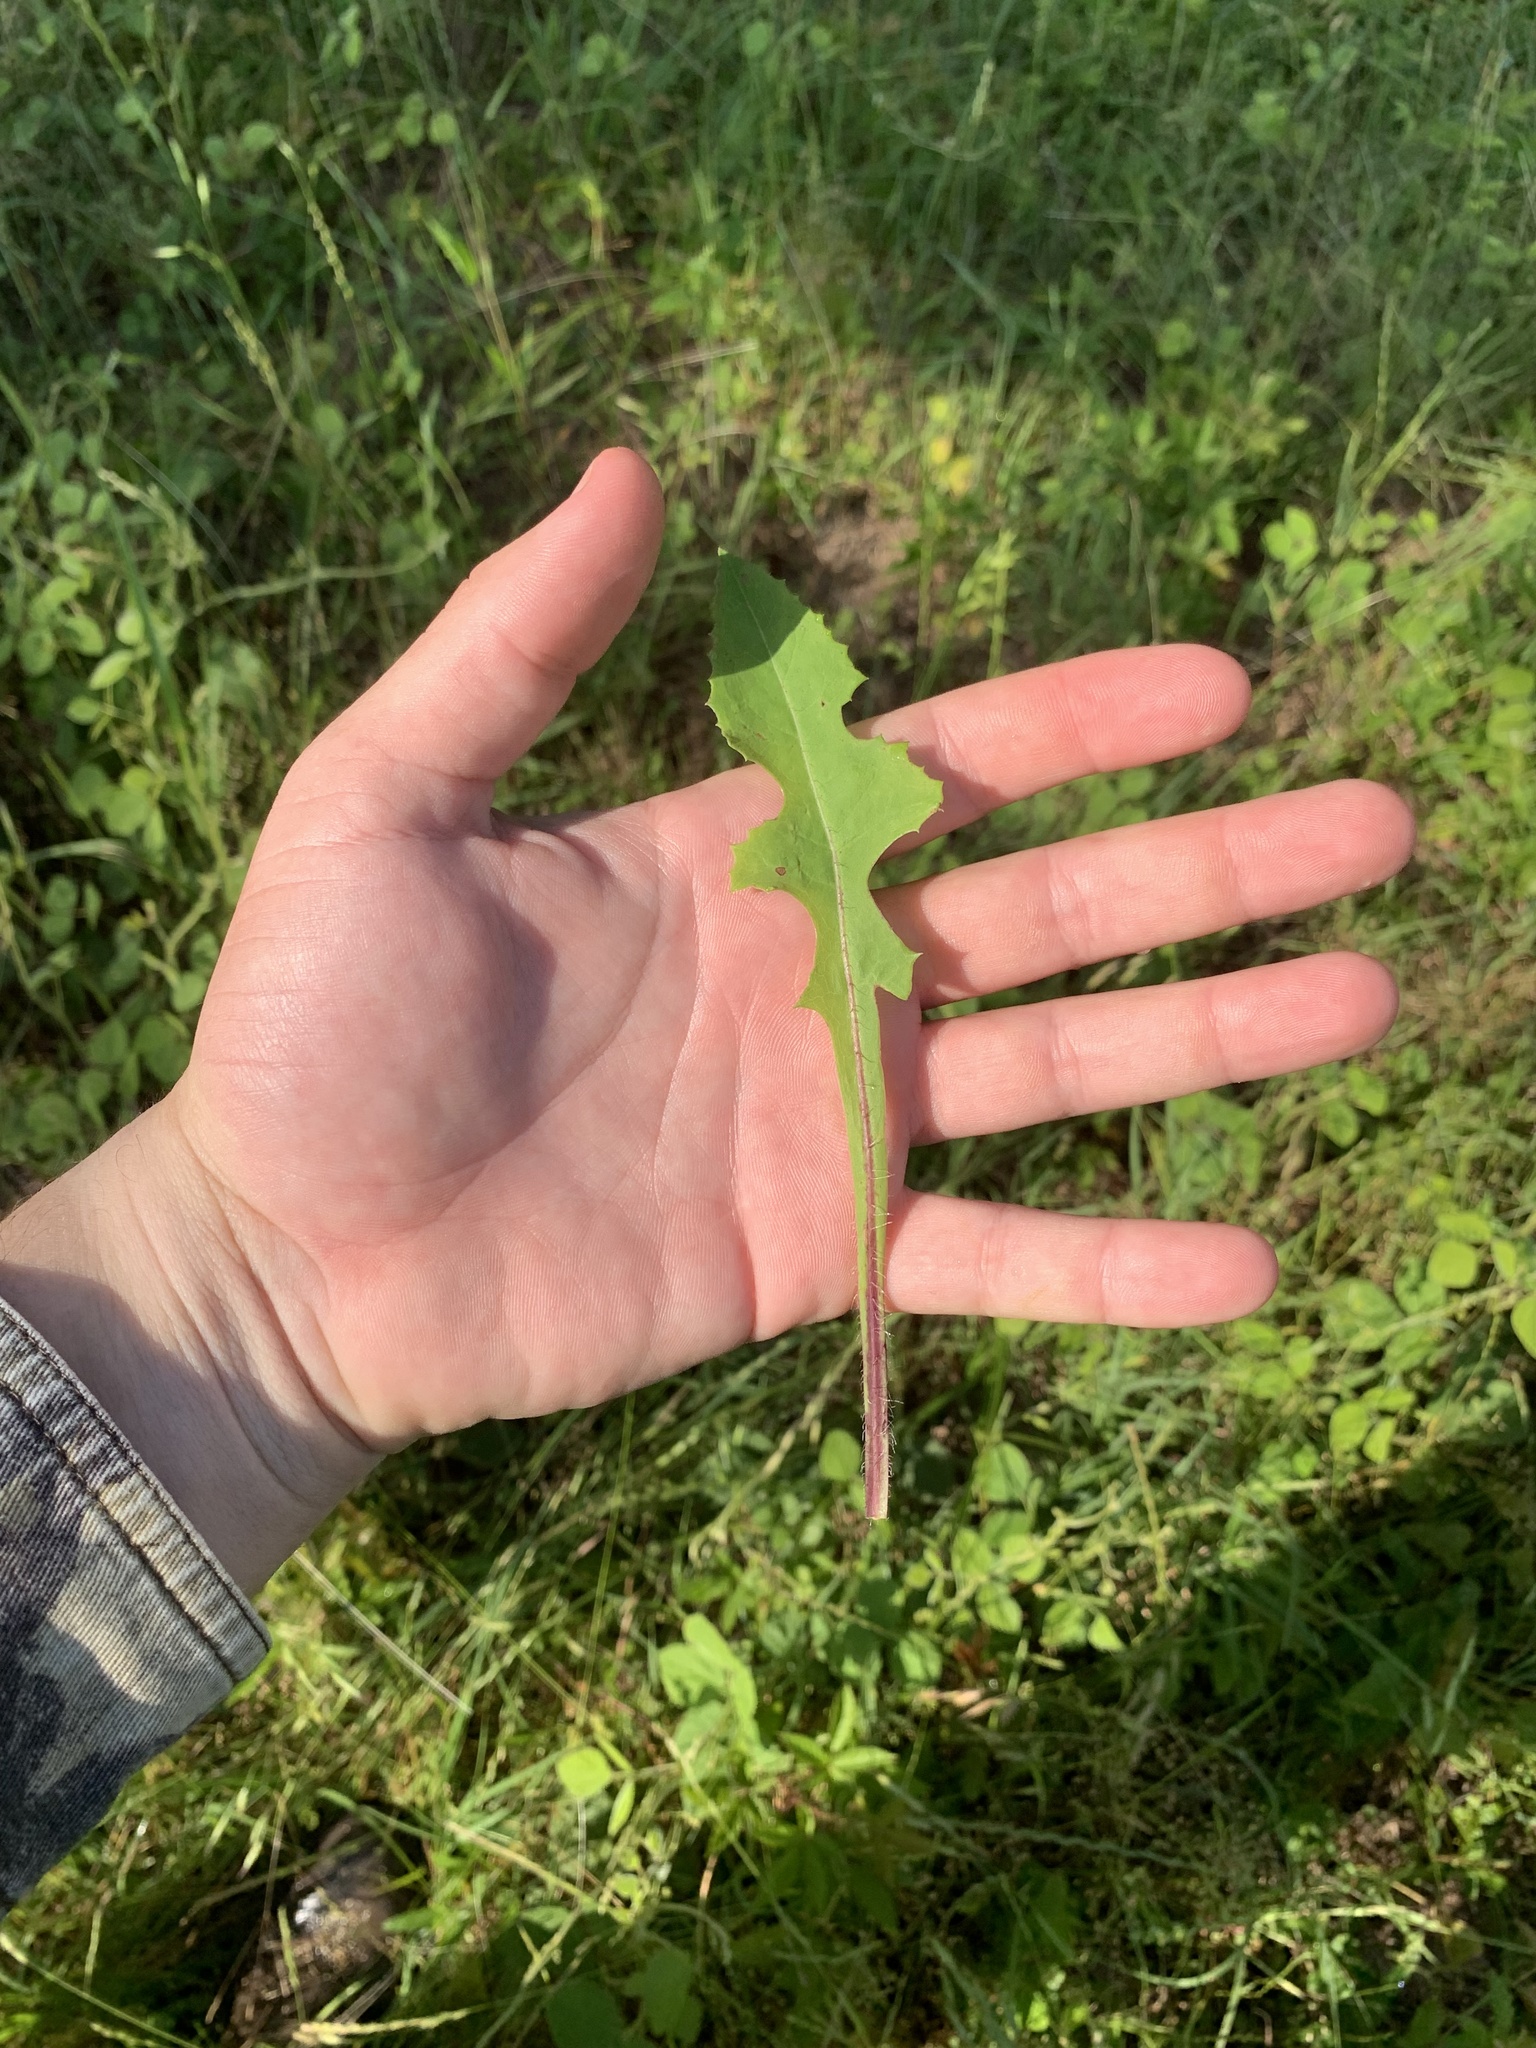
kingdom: Plantae
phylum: Tracheophyta
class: Magnoliopsida
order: Asterales
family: Asteraceae
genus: Lactuca
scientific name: Lactuca canadensis
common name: Canada lettuce
